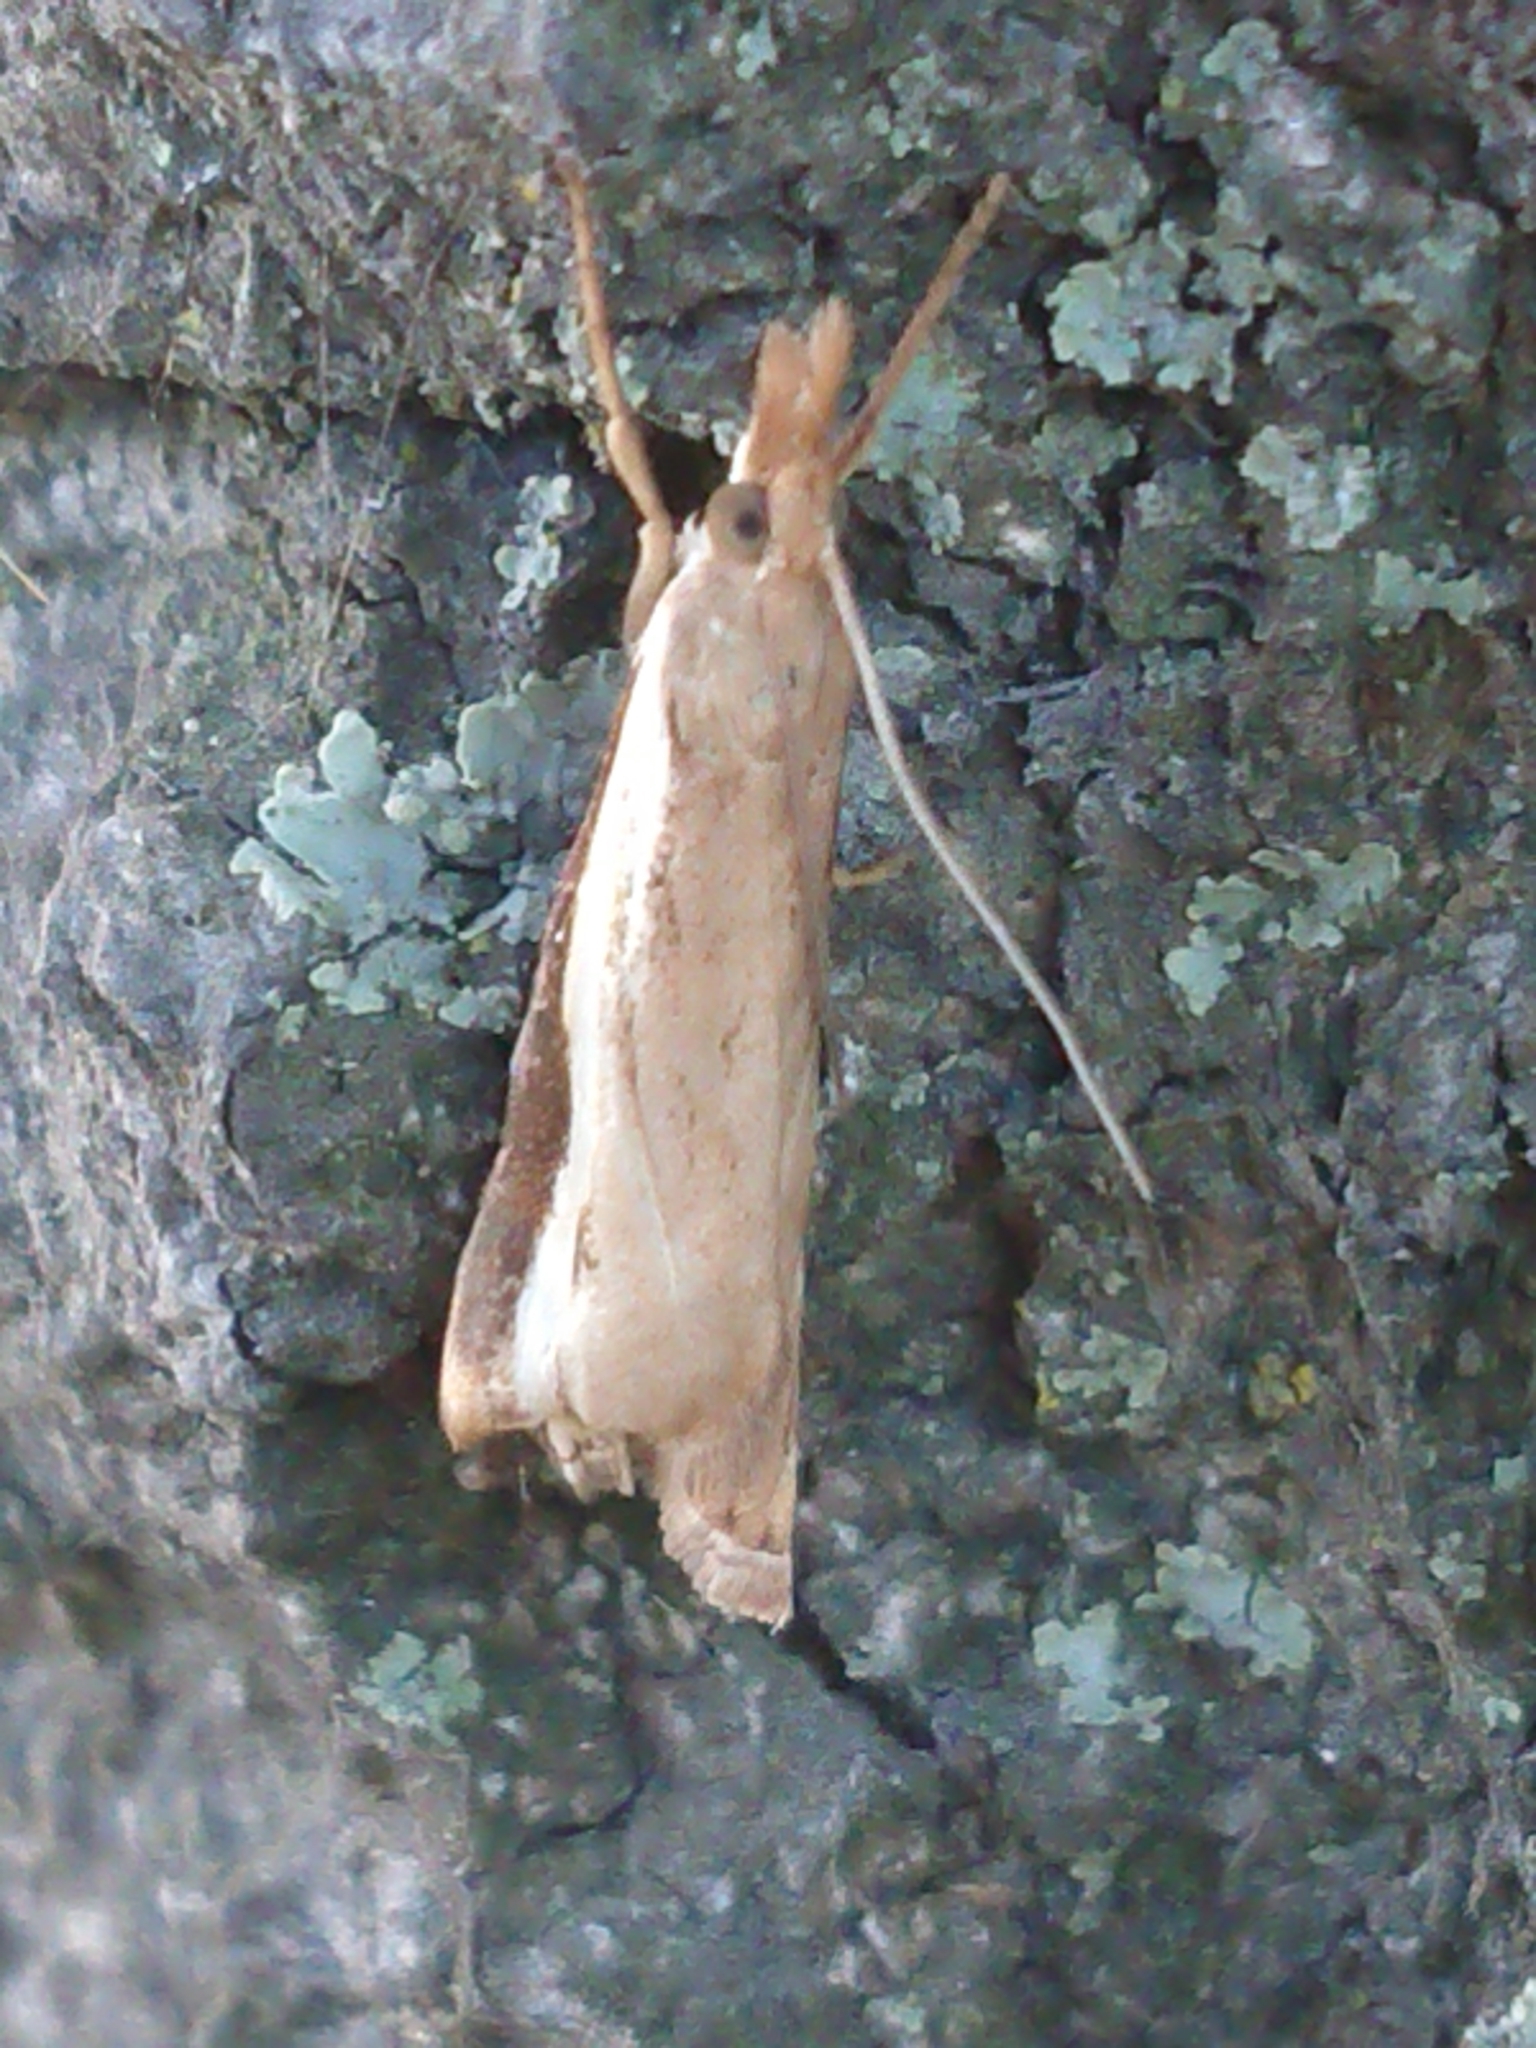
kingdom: Animalia
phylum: Arthropoda
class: Insecta
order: Lepidoptera
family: Crambidae
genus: Orocrambus
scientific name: Orocrambus flexuosellus
